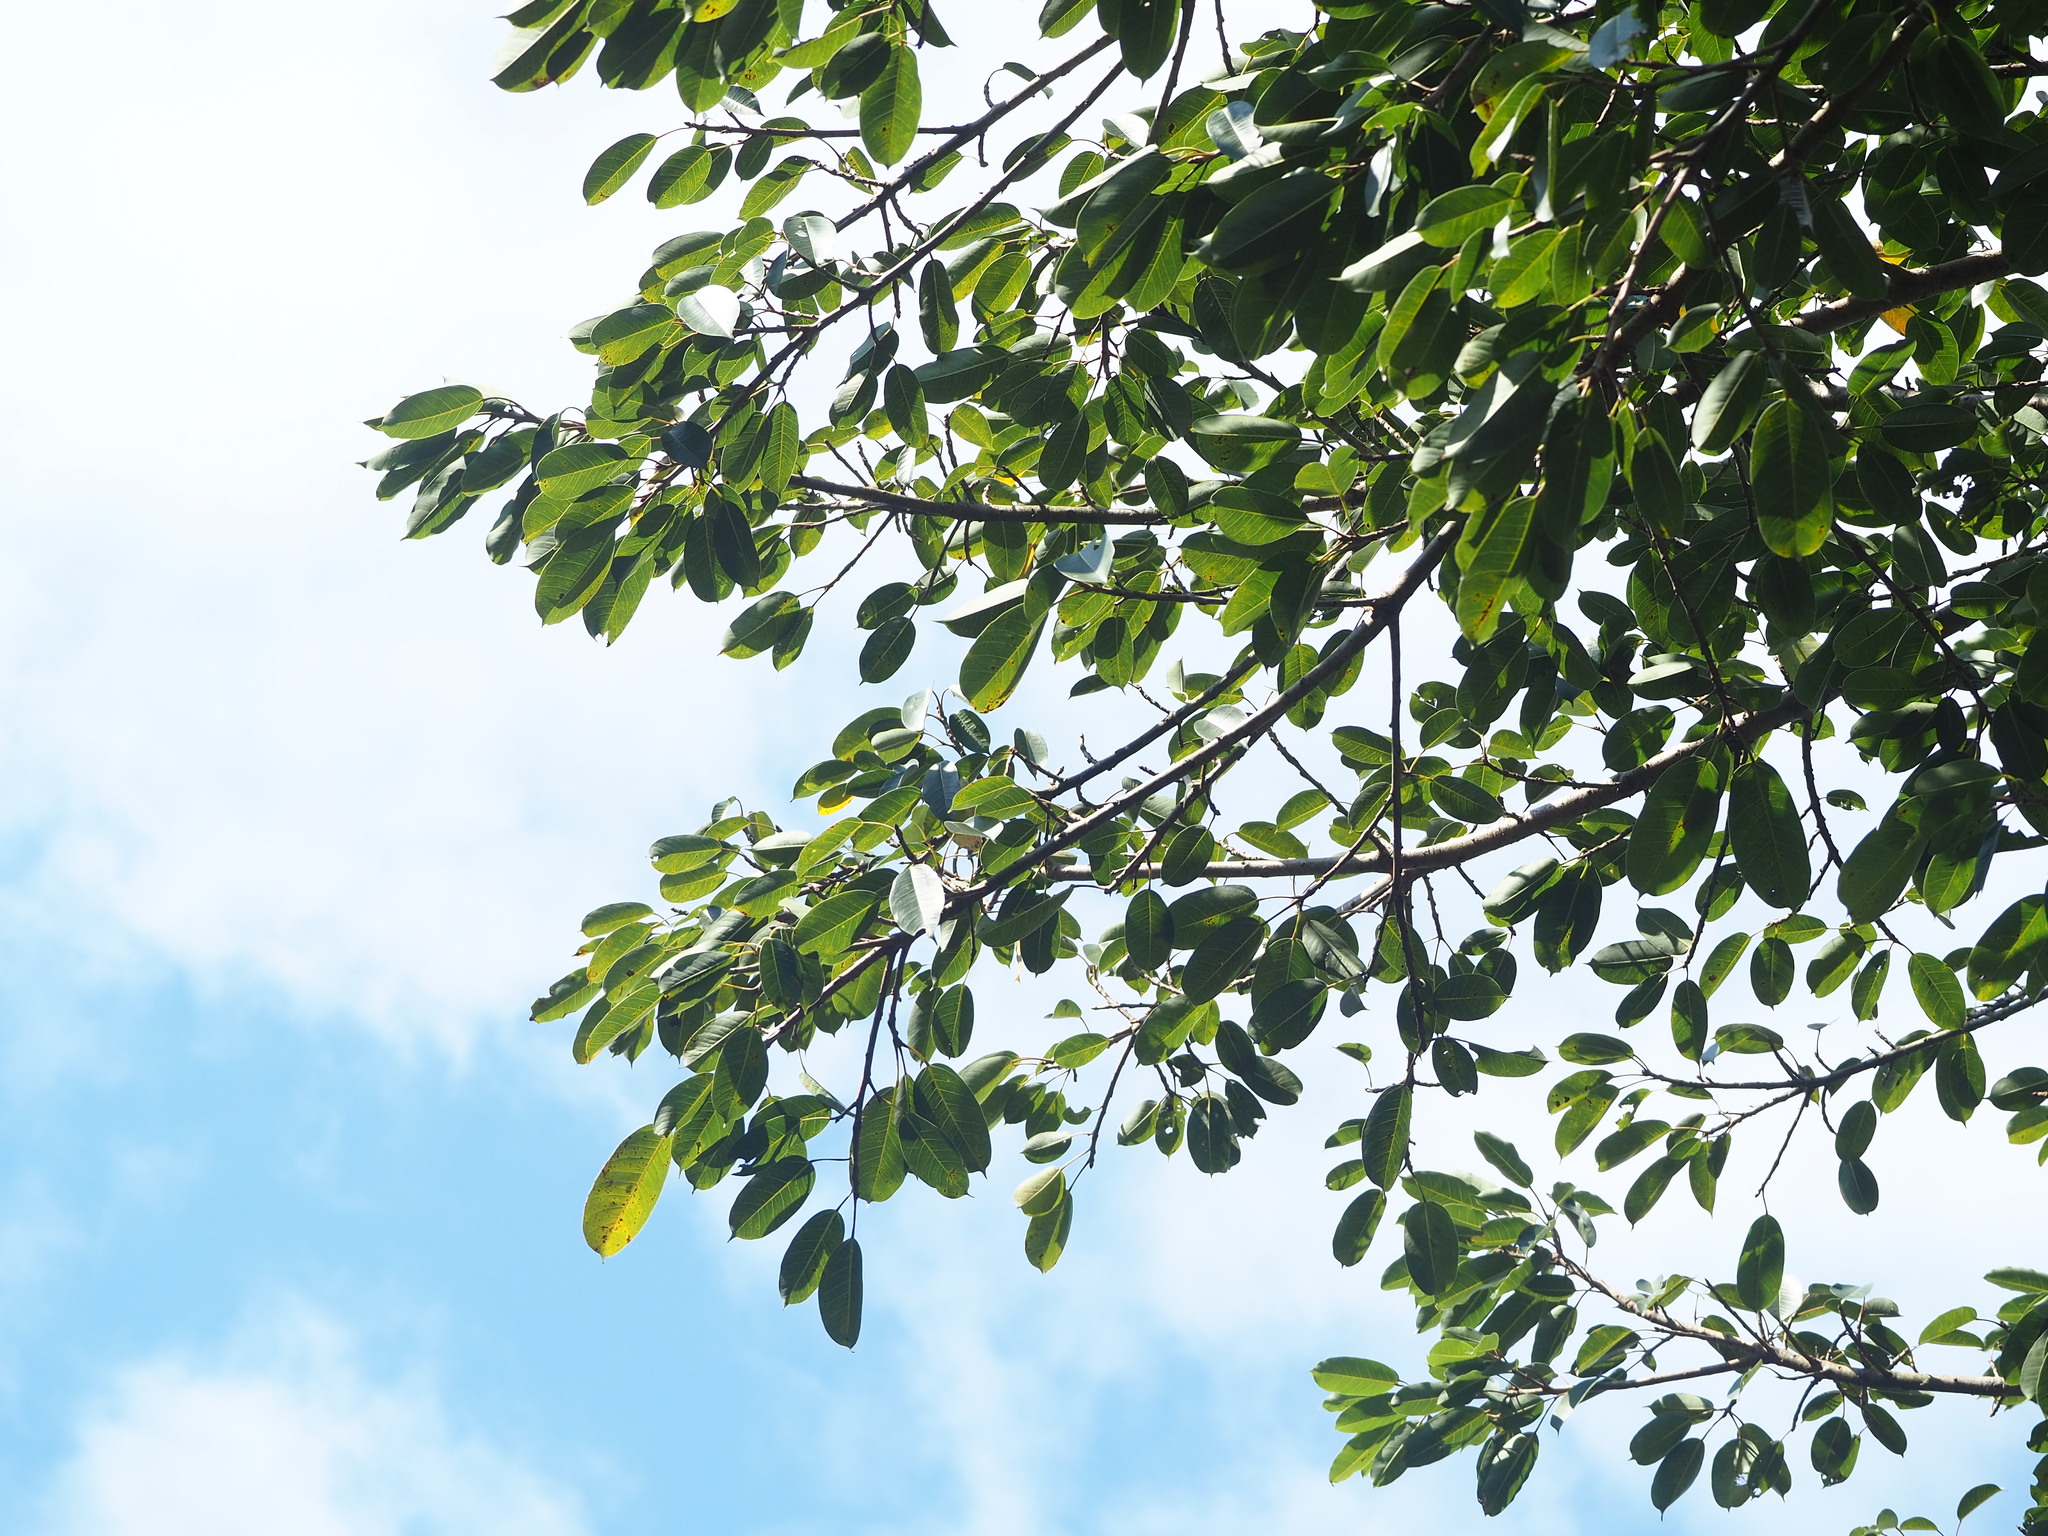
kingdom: Plantae
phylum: Tracheophyta
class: Magnoliopsida
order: Rosales
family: Moraceae
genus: Ficus
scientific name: Ficus caulocarpa
